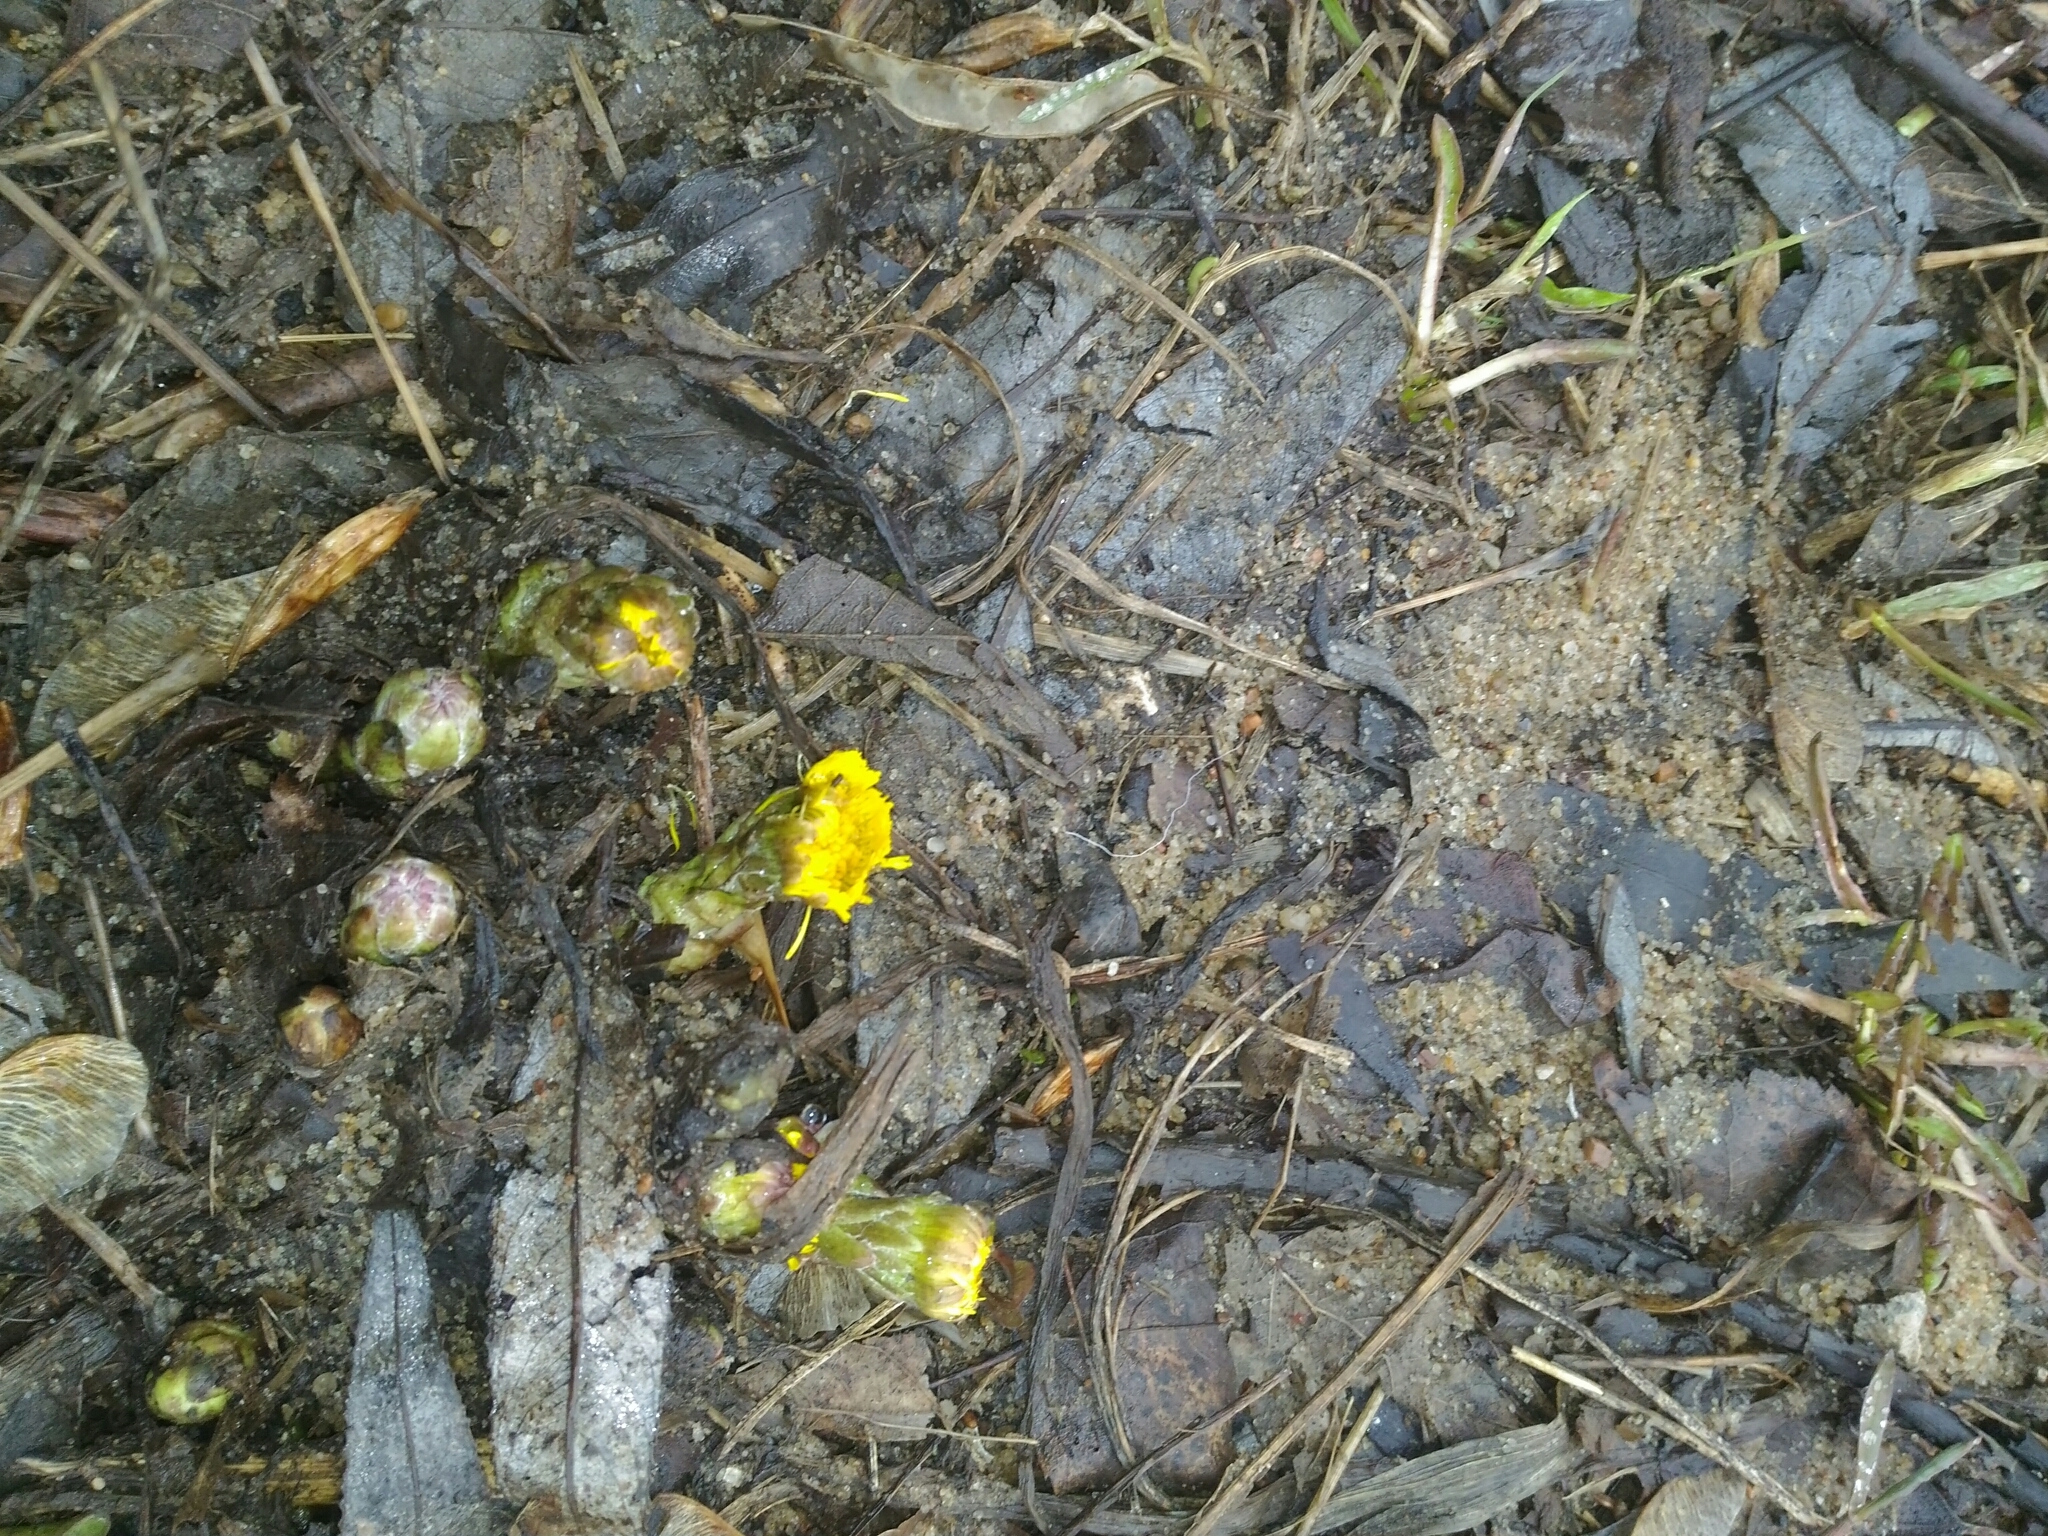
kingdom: Plantae
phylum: Tracheophyta
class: Magnoliopsida
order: Asterales
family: Asteraceae
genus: Tussilago
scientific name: Tussilago farfara
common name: Coltsfoot
